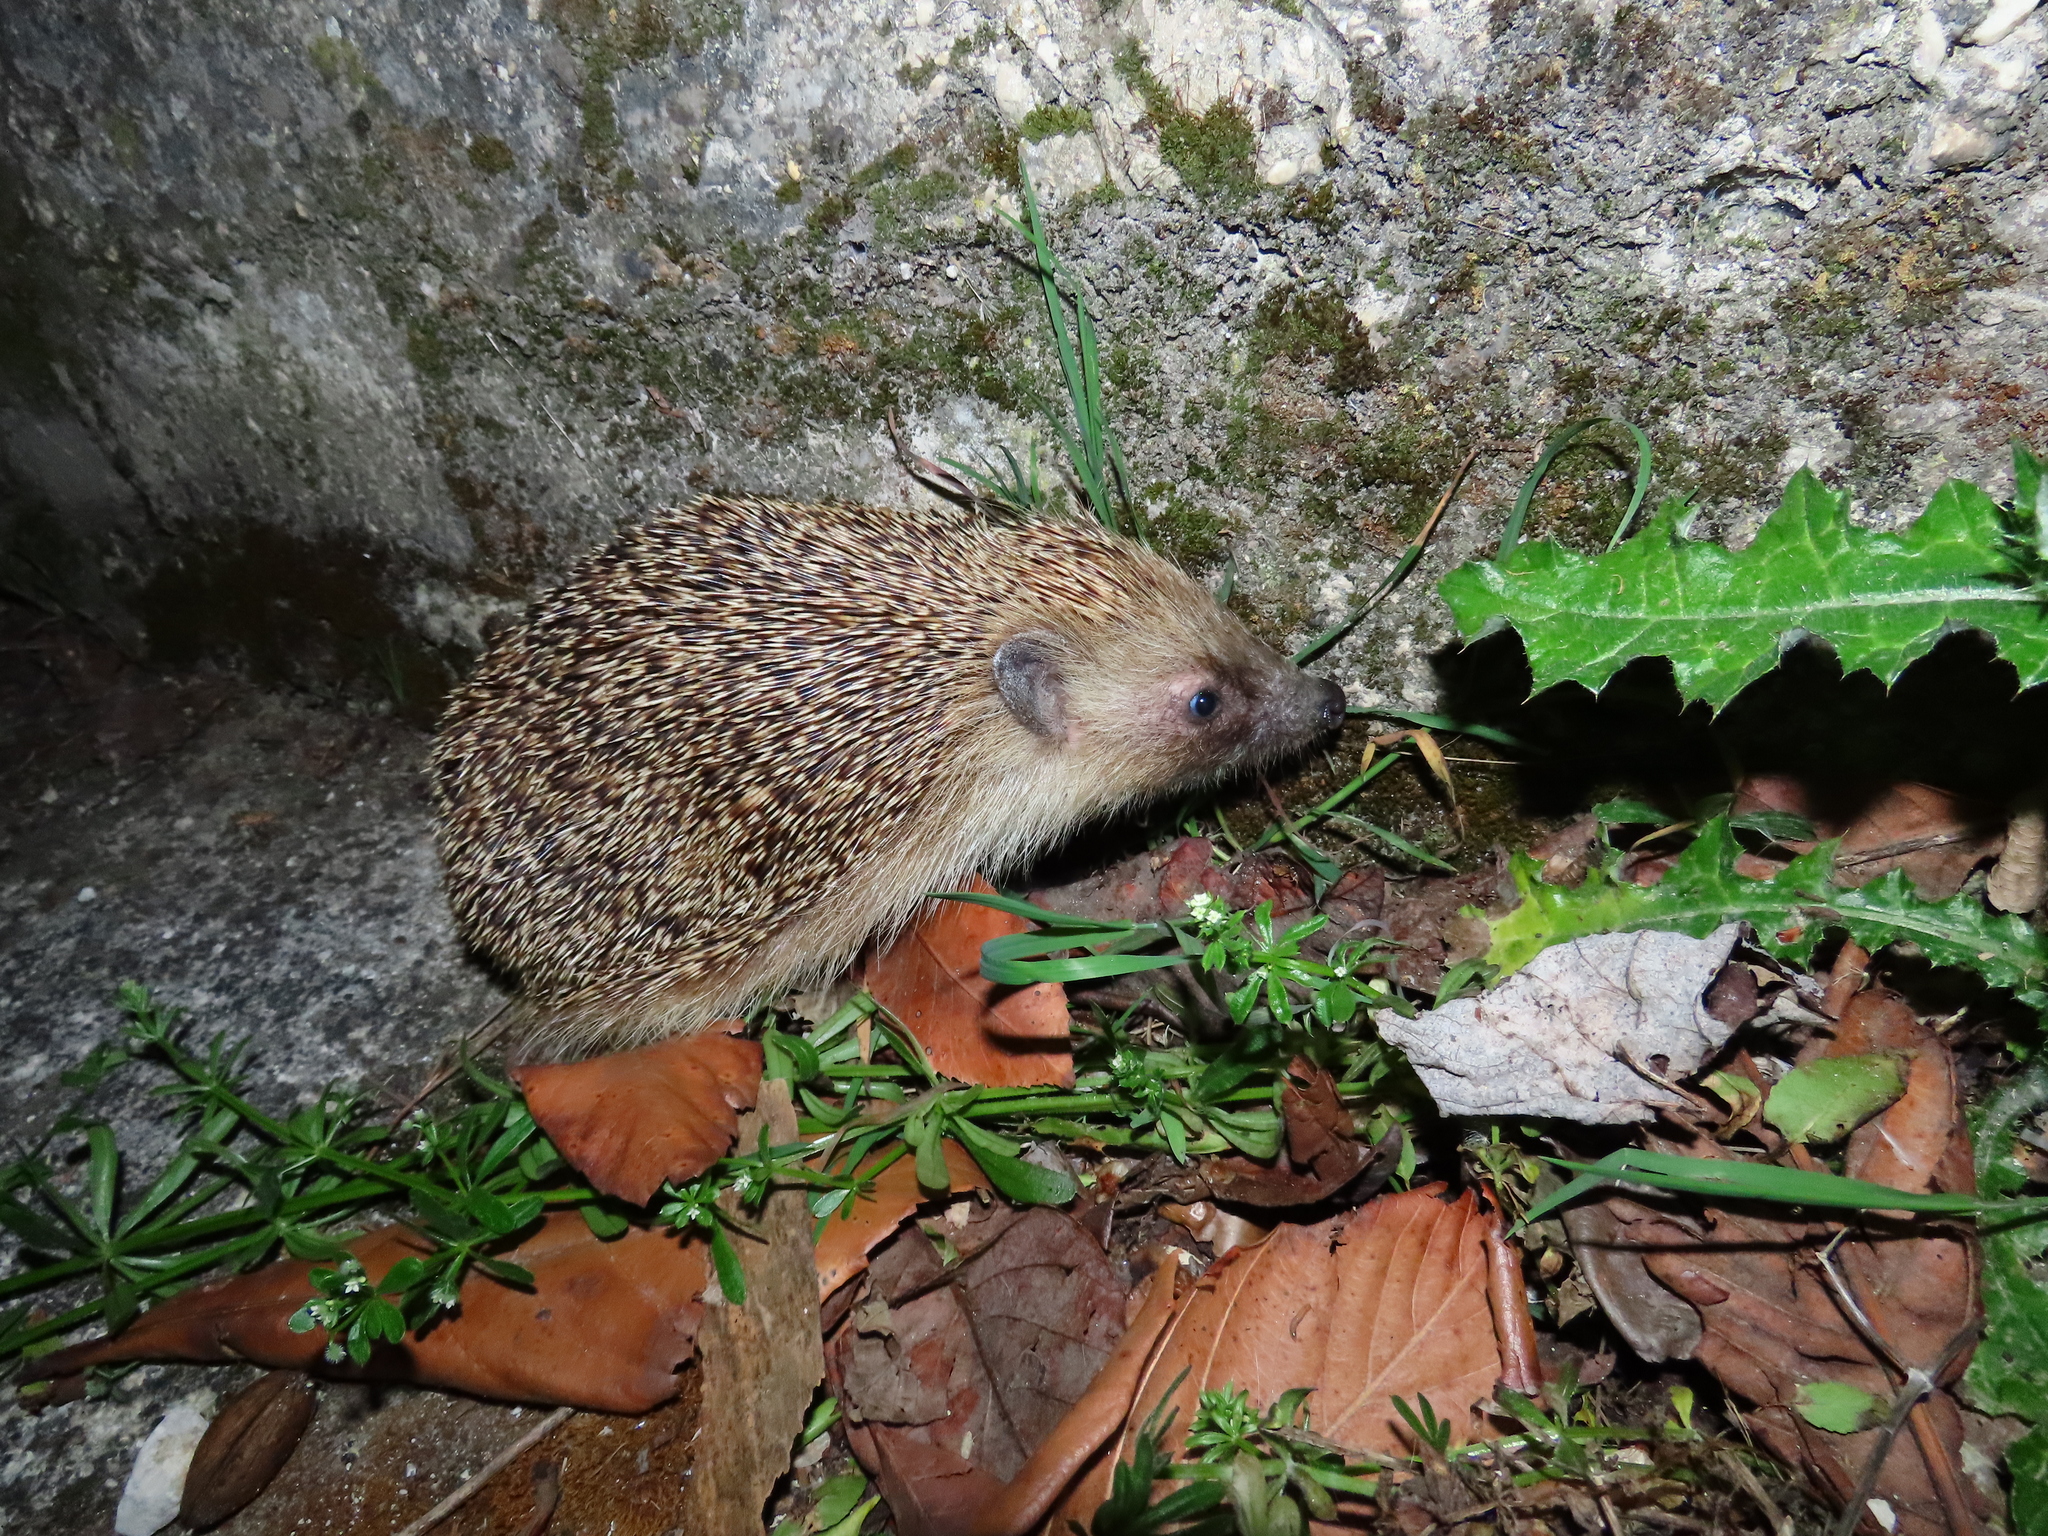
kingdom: Animalia
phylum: Chordata
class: Mammalia
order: Erinaceomorpha
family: Erinaceidae
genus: Erinaceus
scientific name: Erinaceus europaeus
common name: West european hedgehog
